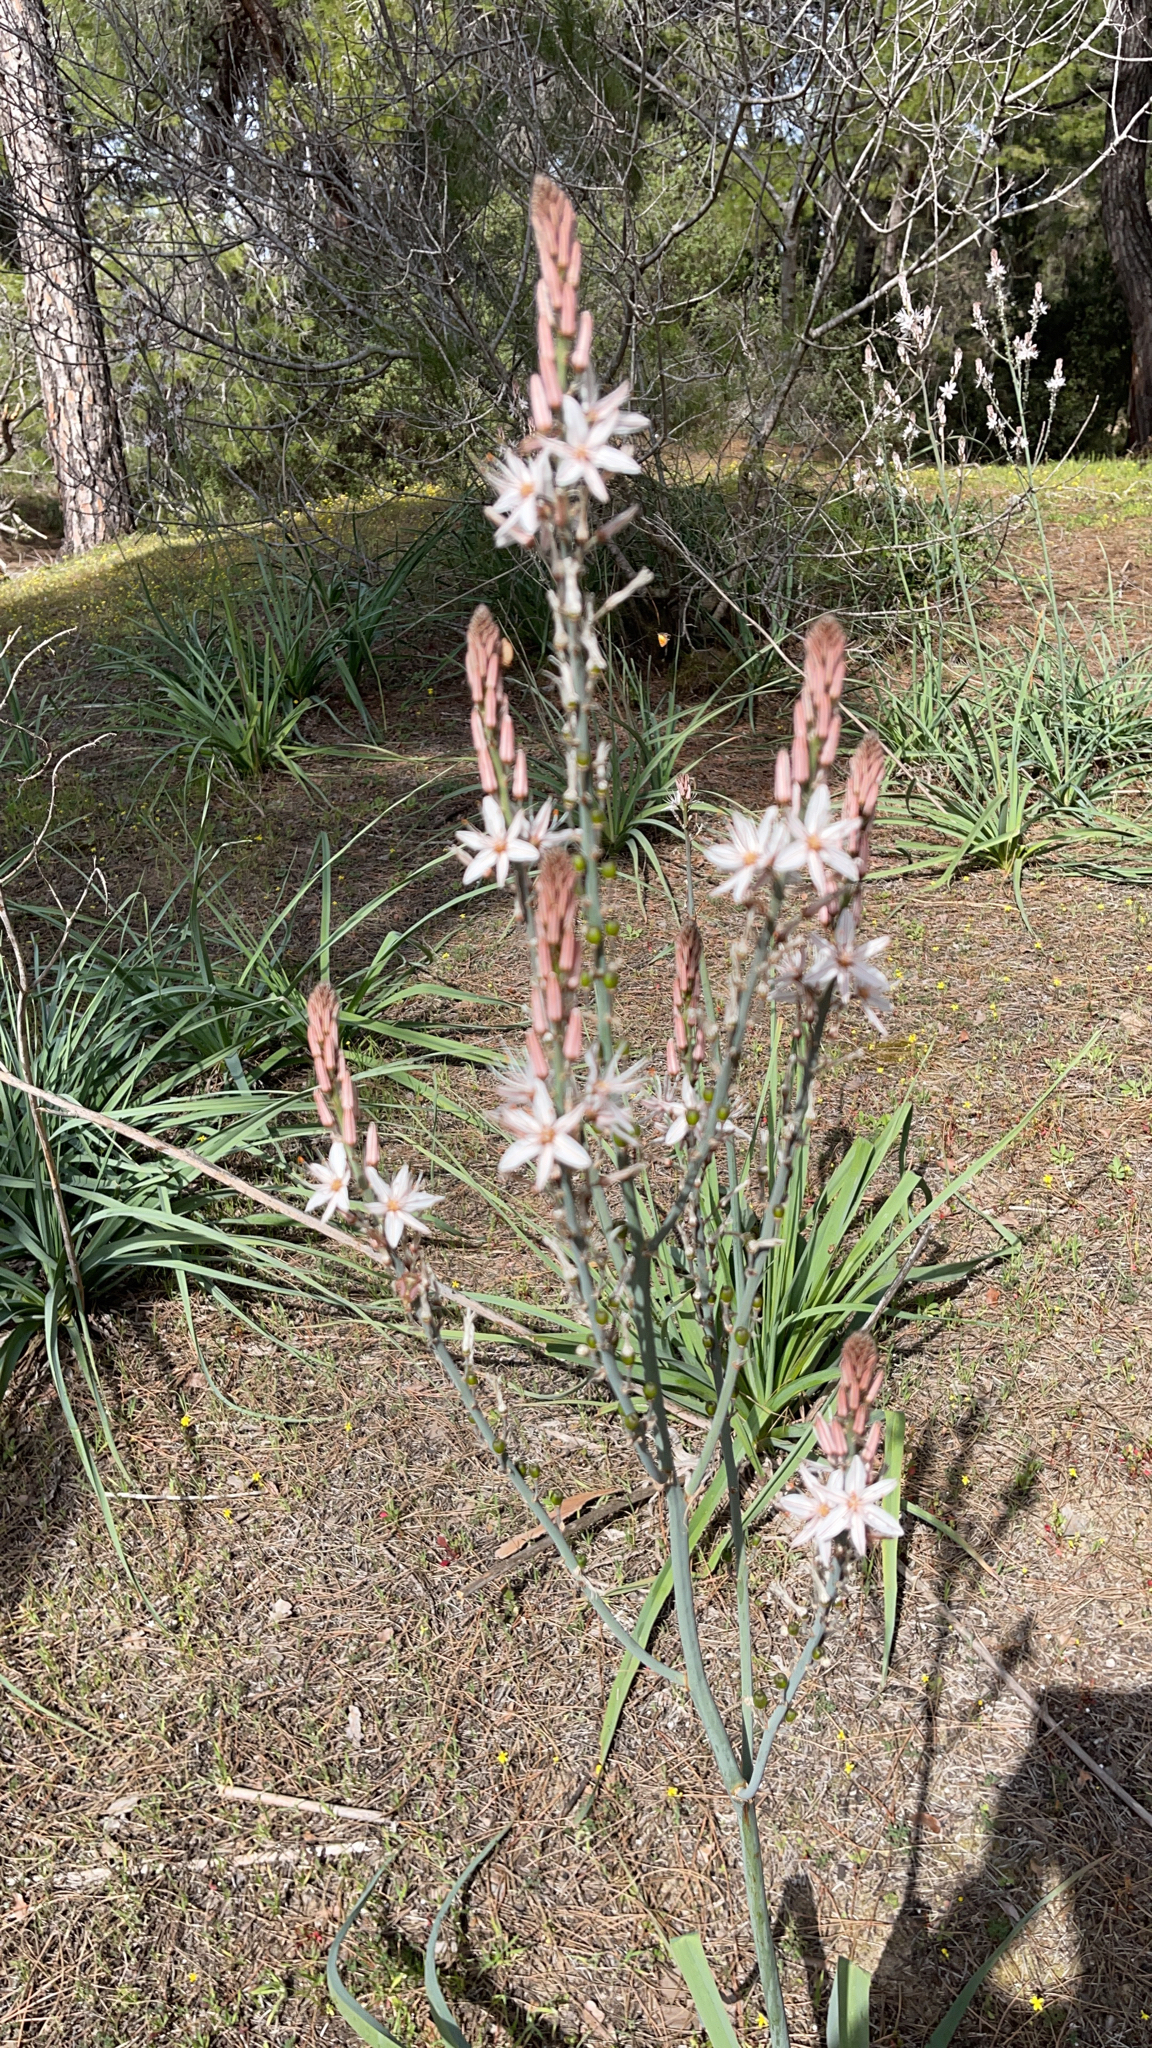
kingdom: Plantae
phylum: Tracheophyta
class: Liliopsida
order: Asparagales
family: Asphodelaceae
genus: Asphodelus
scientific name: Asphodelus ramosus
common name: Silverrod
